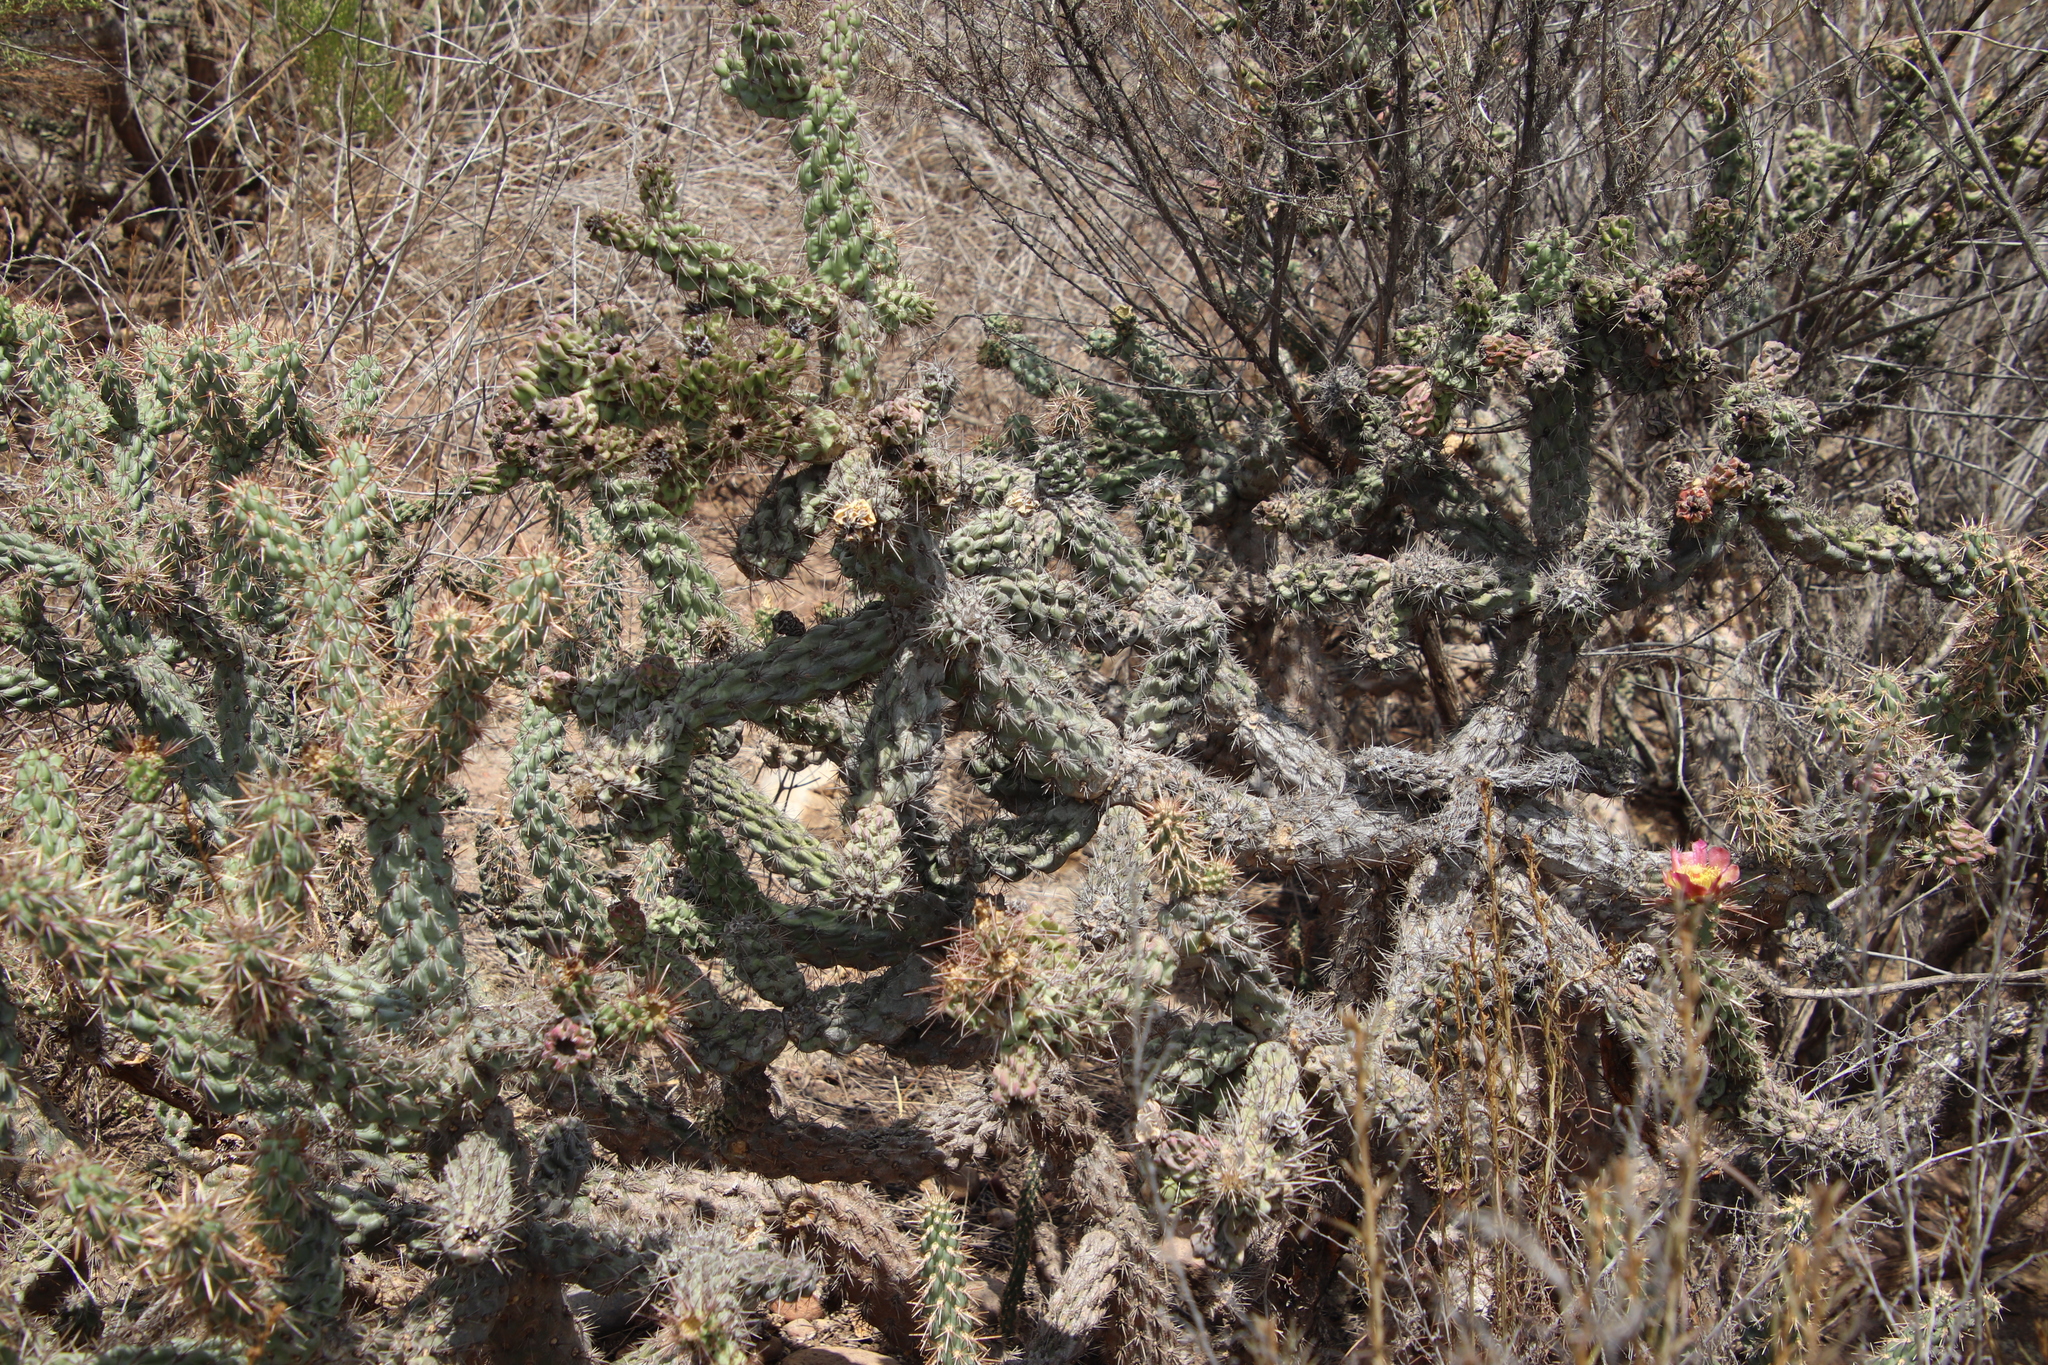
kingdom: Plantae
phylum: Tracheophyta
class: Magnoliopsida
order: Caryophyllales
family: Cactaceae
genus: Cylindropuntia
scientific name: Cylindropuntia prolifera
